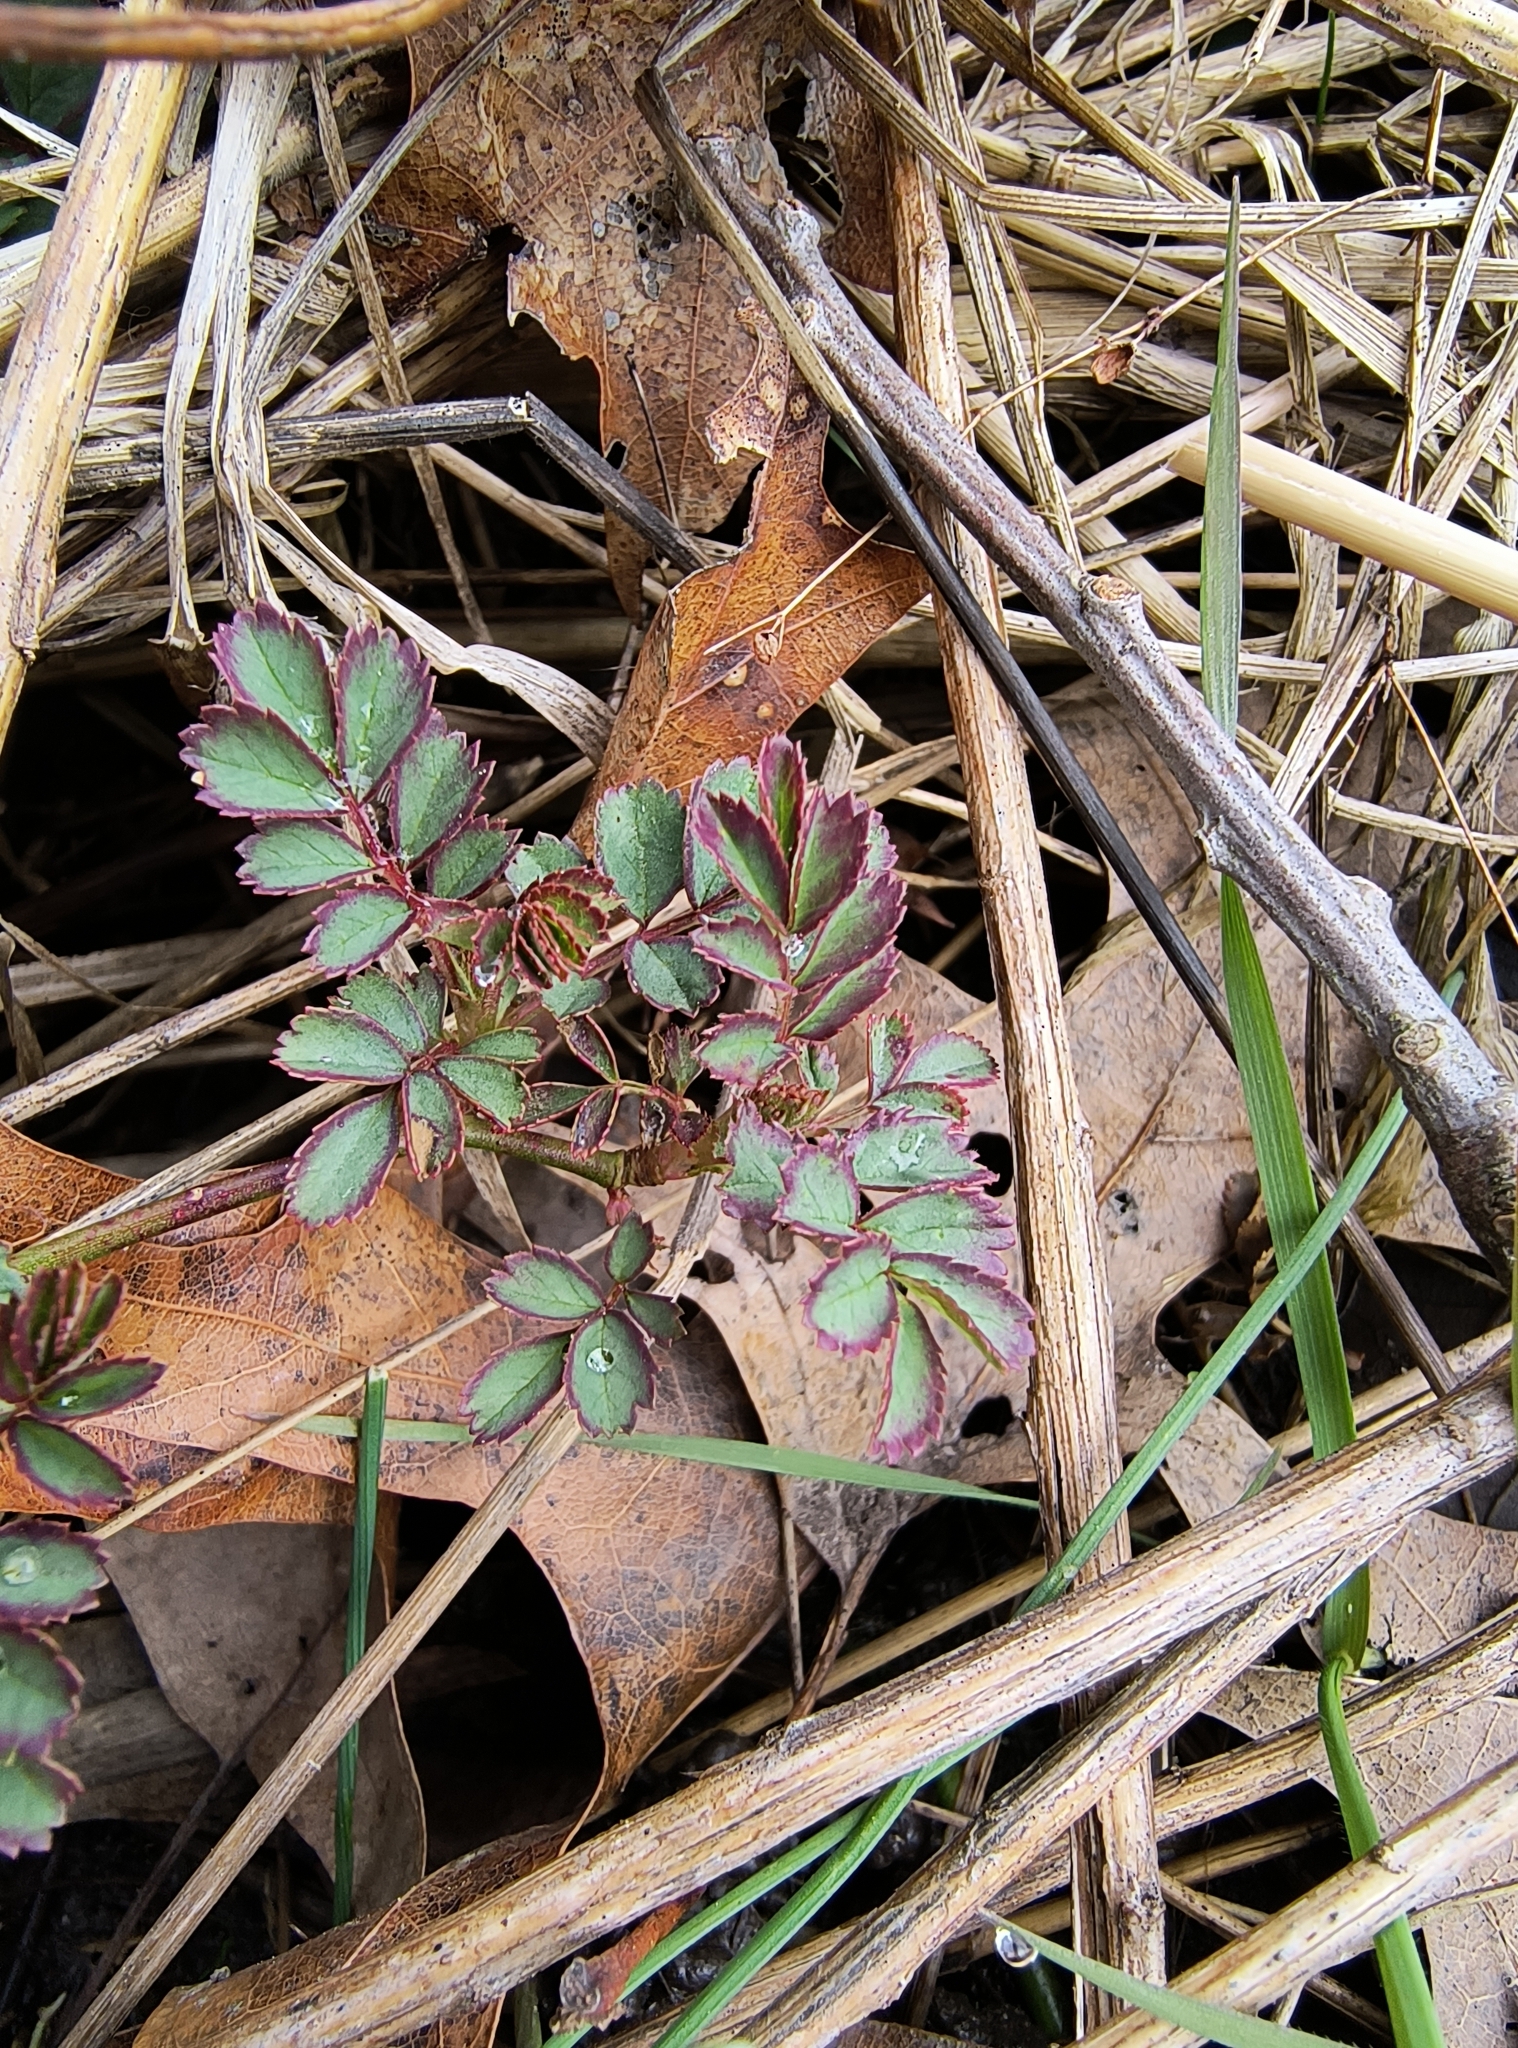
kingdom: Plantae
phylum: Tracheophyta
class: Magnoliopsida
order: Rosales
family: Rosaceae
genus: Rosa
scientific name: Rosa multiflora
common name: Multiflora rose
